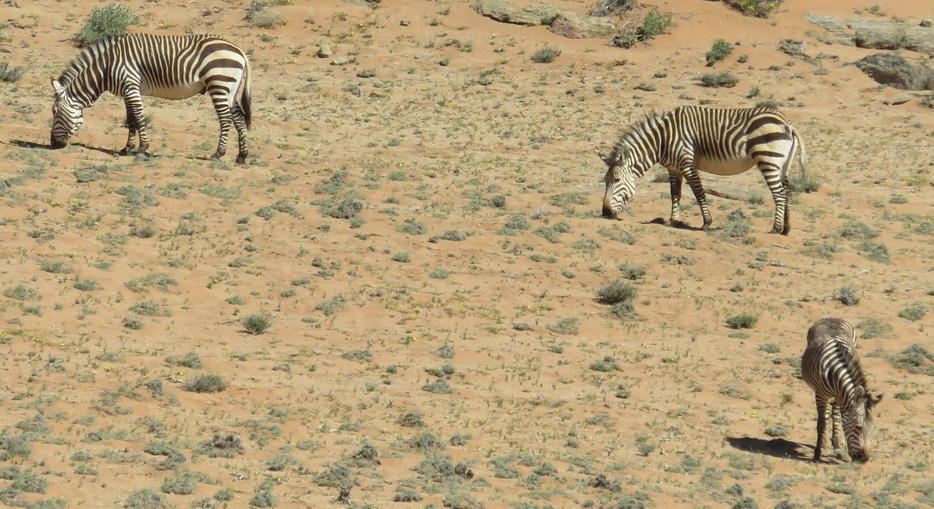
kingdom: Animalia
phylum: Chordata
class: Mammalia
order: Perissodactyla
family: Equidae
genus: Equus
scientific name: Equus hartmannae
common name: Hartmann's mountain zebra
